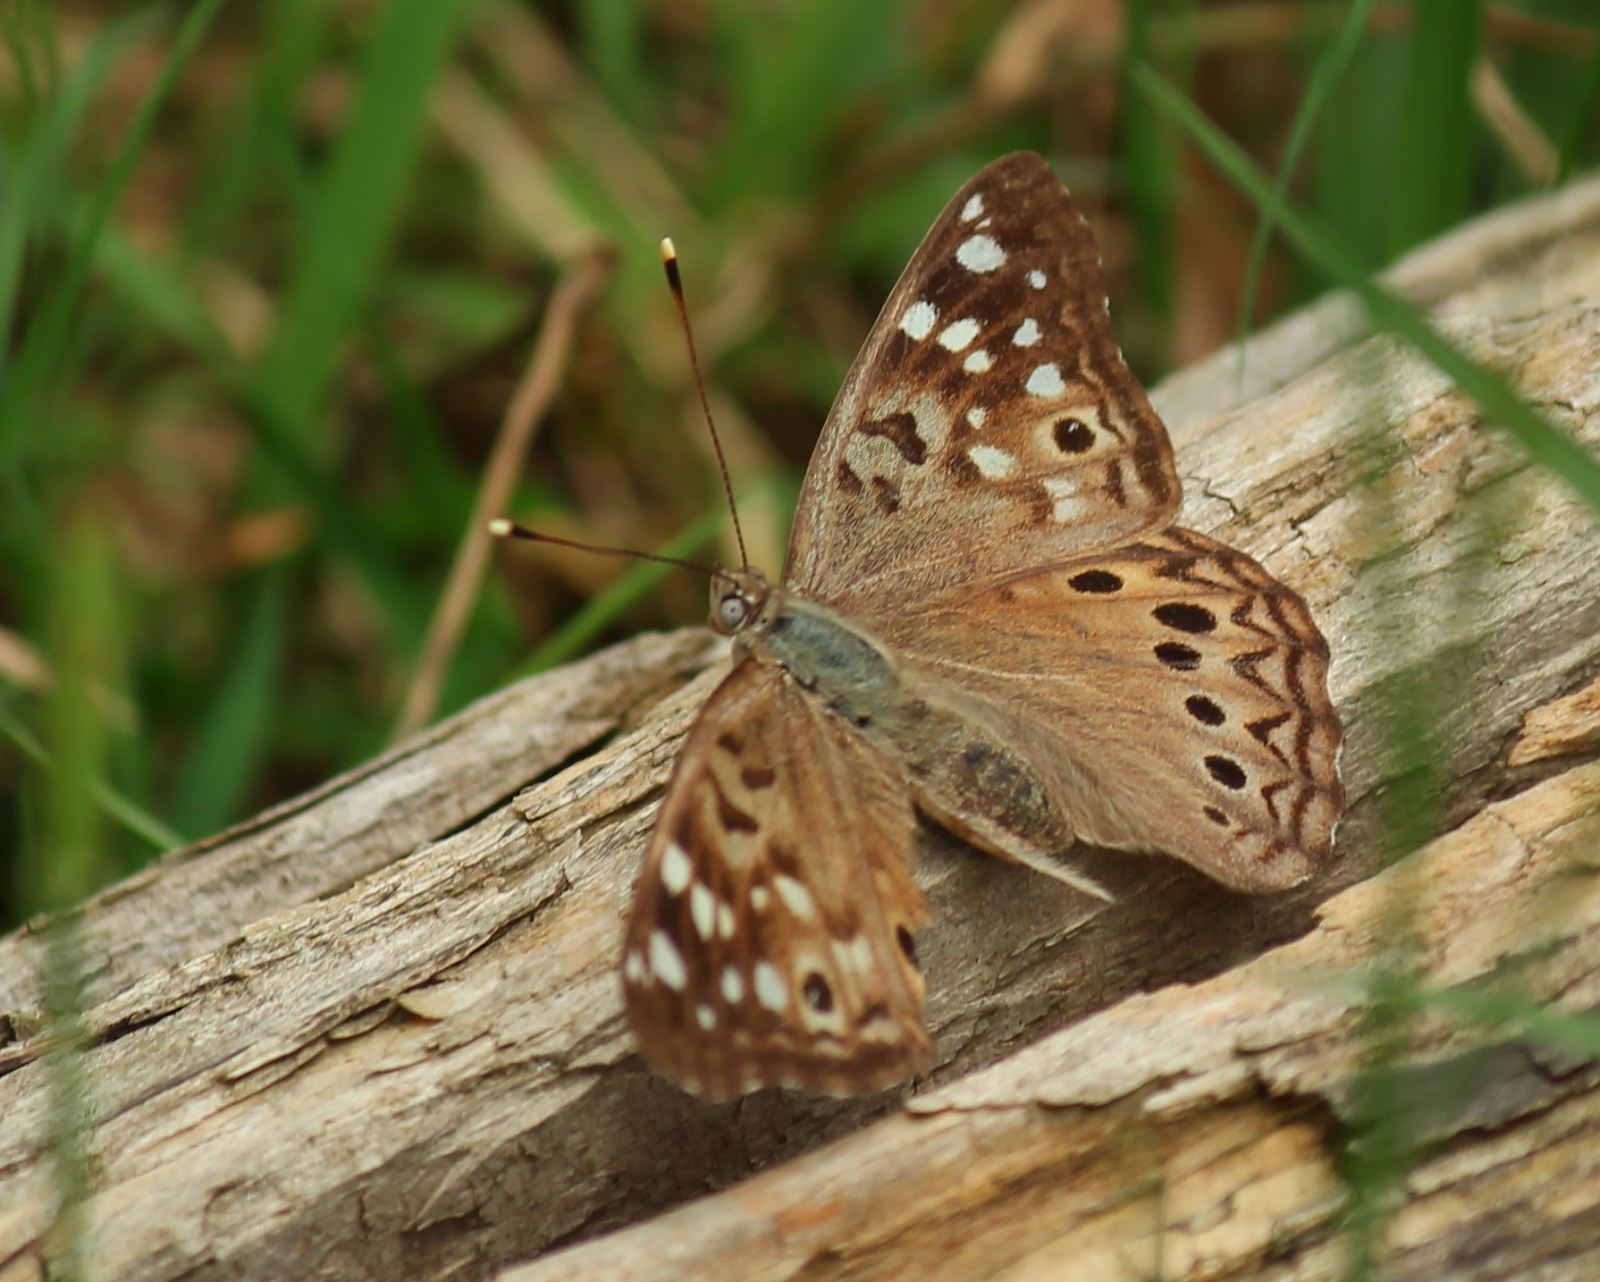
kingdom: Animalia
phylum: Arthropoda
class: Insecta
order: Lepidoptera
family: Nymphalidae
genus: Asterocampa
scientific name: Asterocampa celtis
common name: Hackberry emperor
